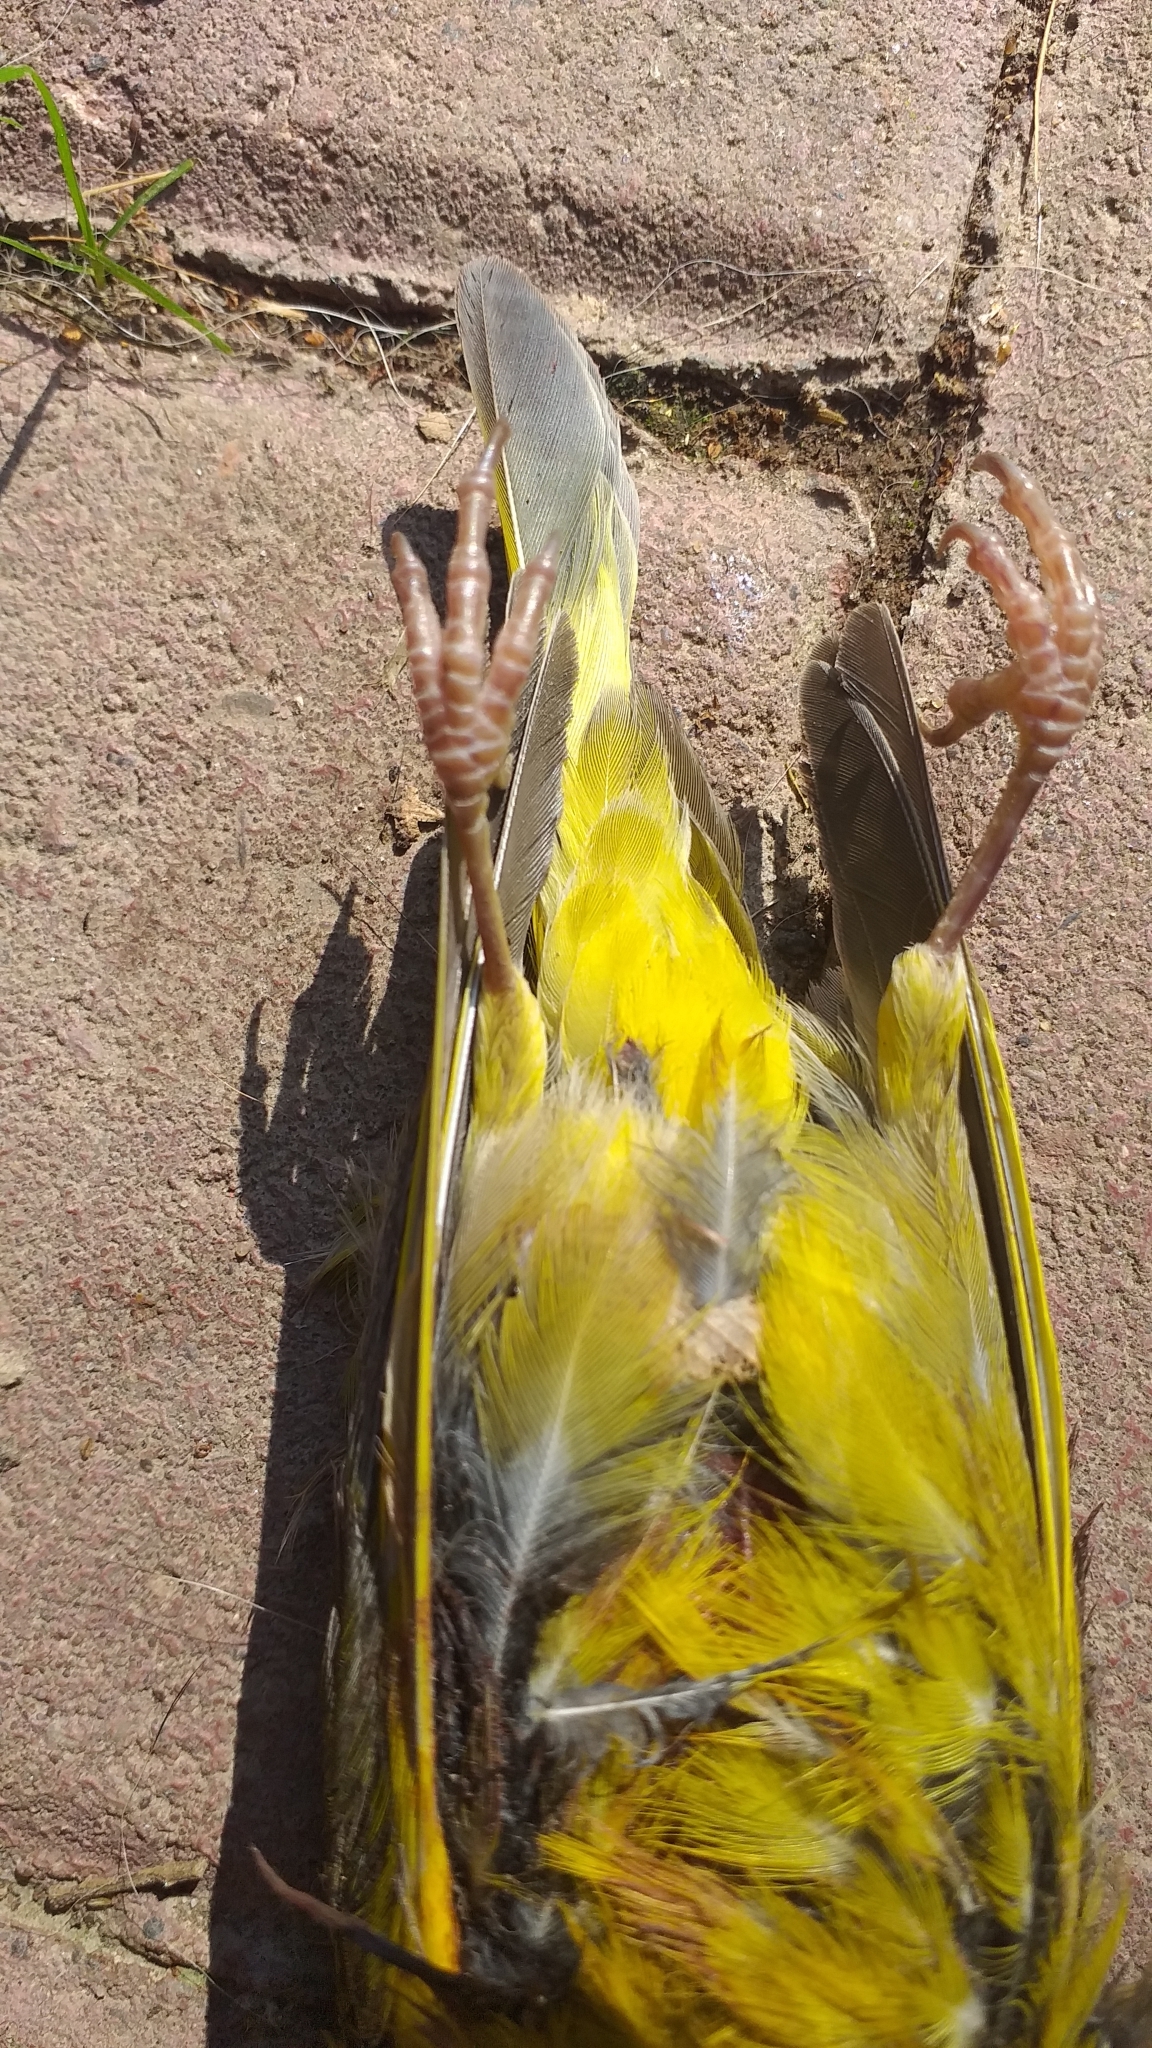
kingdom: Plantae
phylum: Tracheophyta
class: Liliopsida
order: Poales
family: Poaceae
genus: Chloris
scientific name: Chloris chloris
